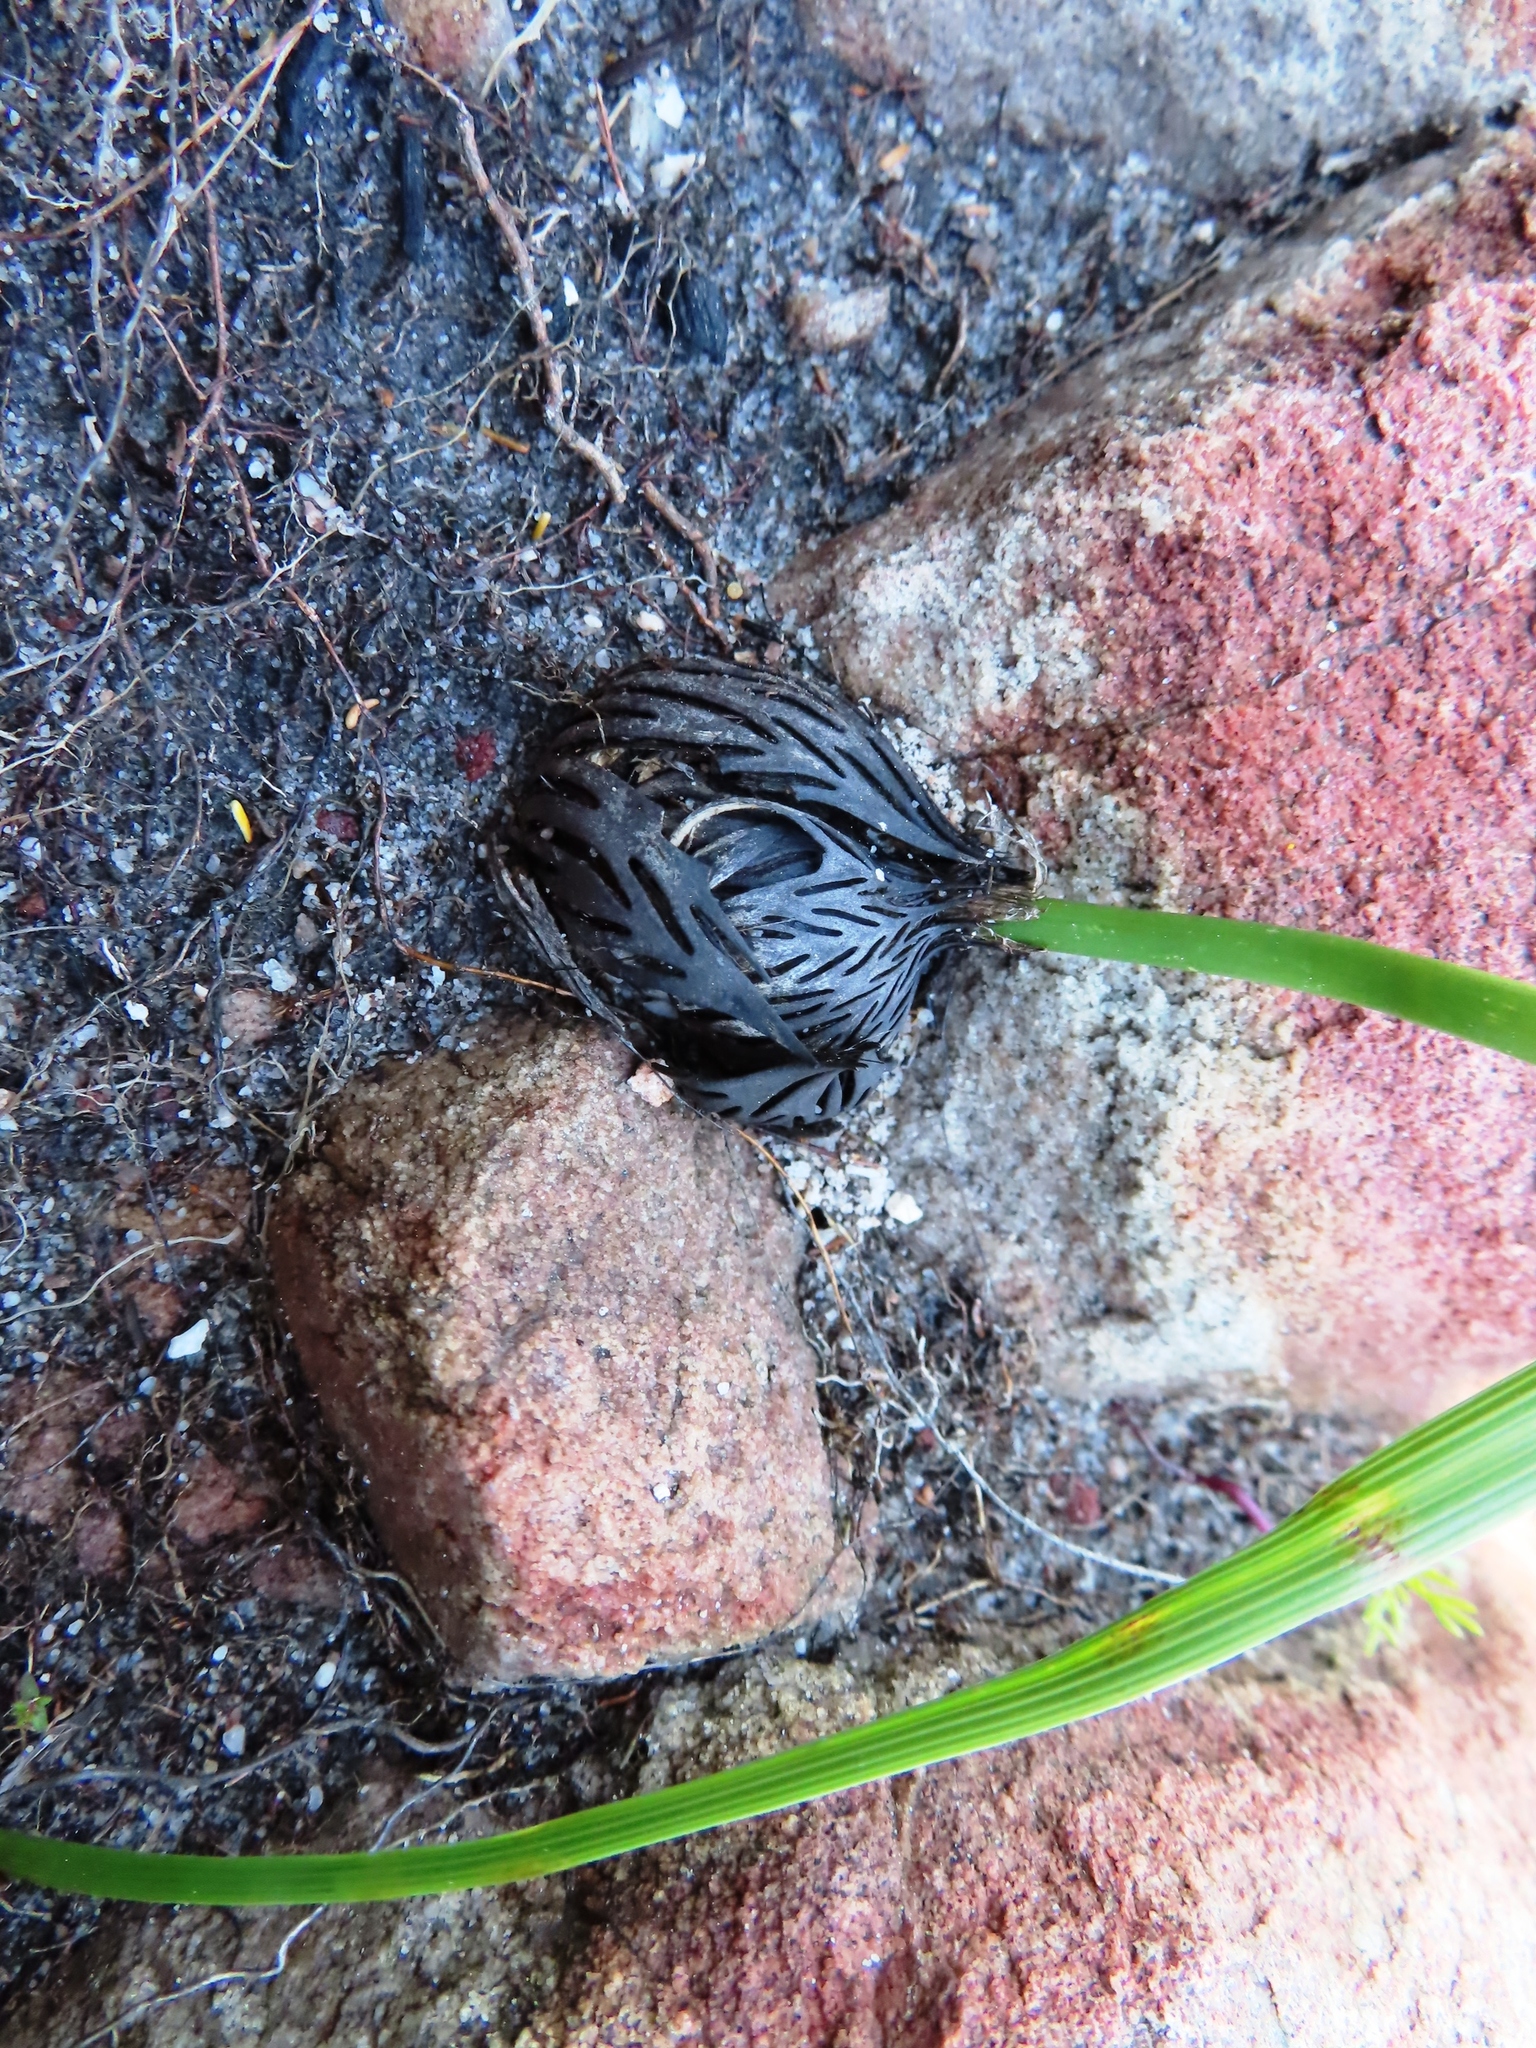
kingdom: Plantae
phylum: Tracheophyta
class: Liliopsida
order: Asparagales
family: Iridaceae
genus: Moraea
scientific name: Moraea ochroleuca
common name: Red tulp
